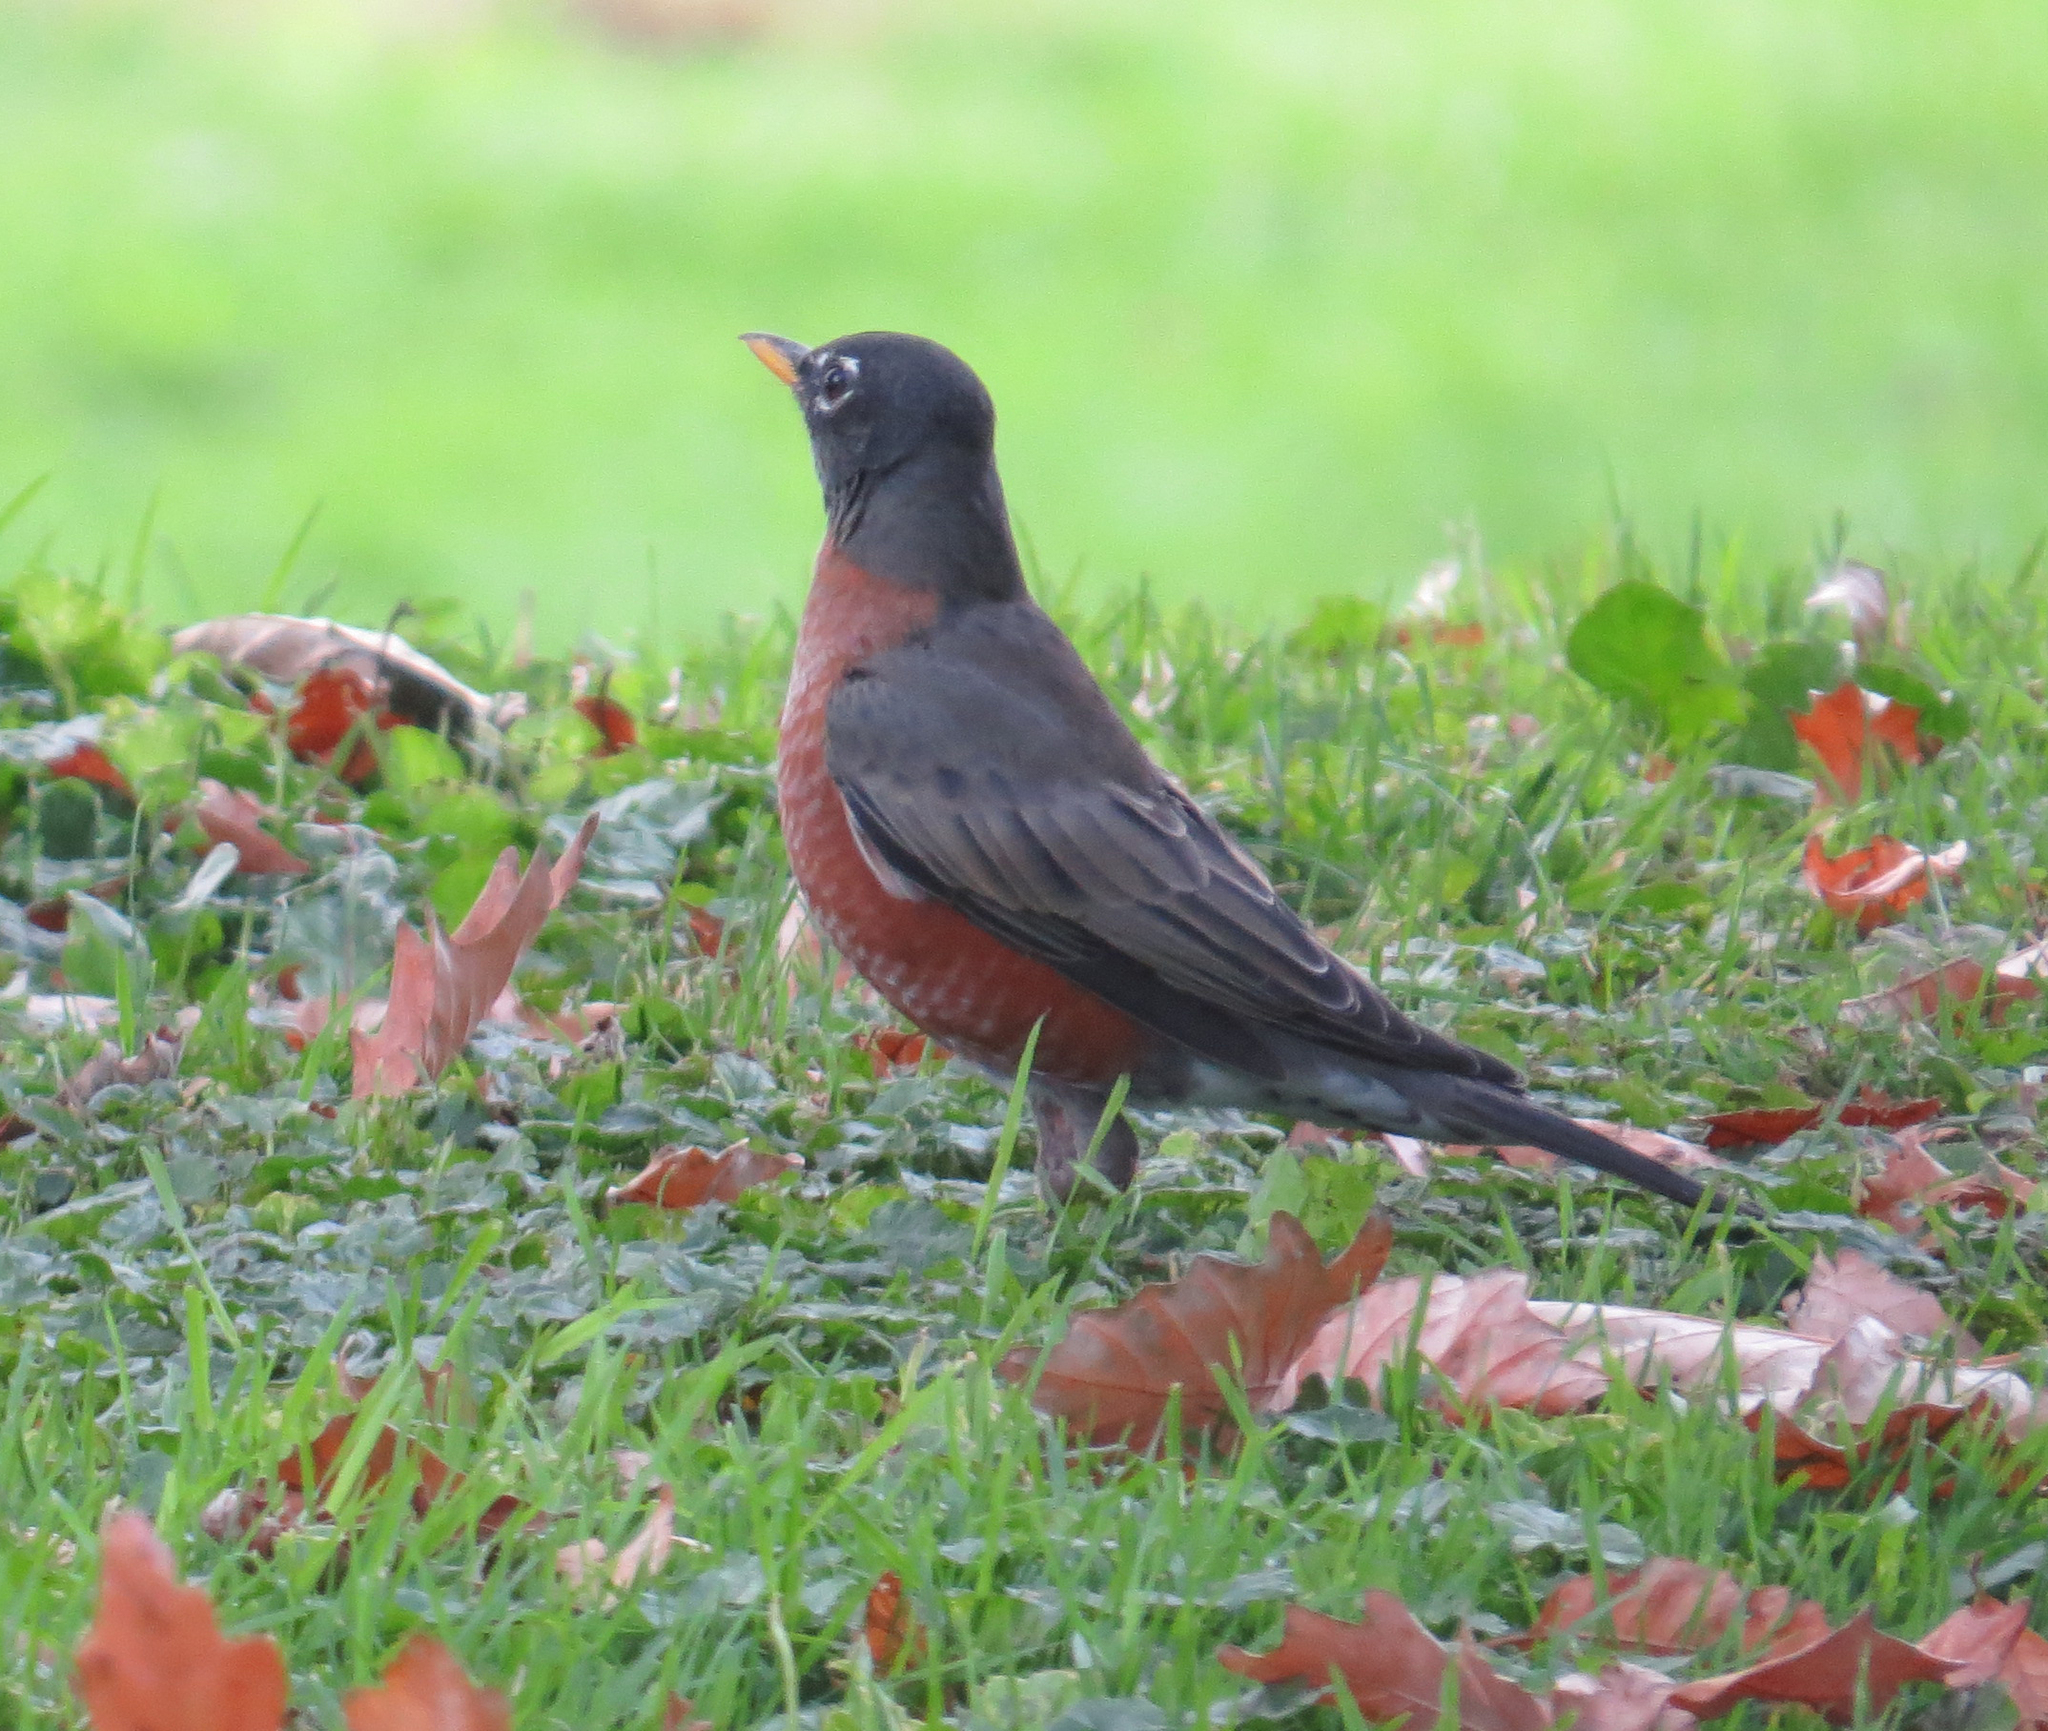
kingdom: Animalia
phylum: Chordata
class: Aves
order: Passeriformes
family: Turdidae
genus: Turdus
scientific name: Turdus migratorius
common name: American robin
